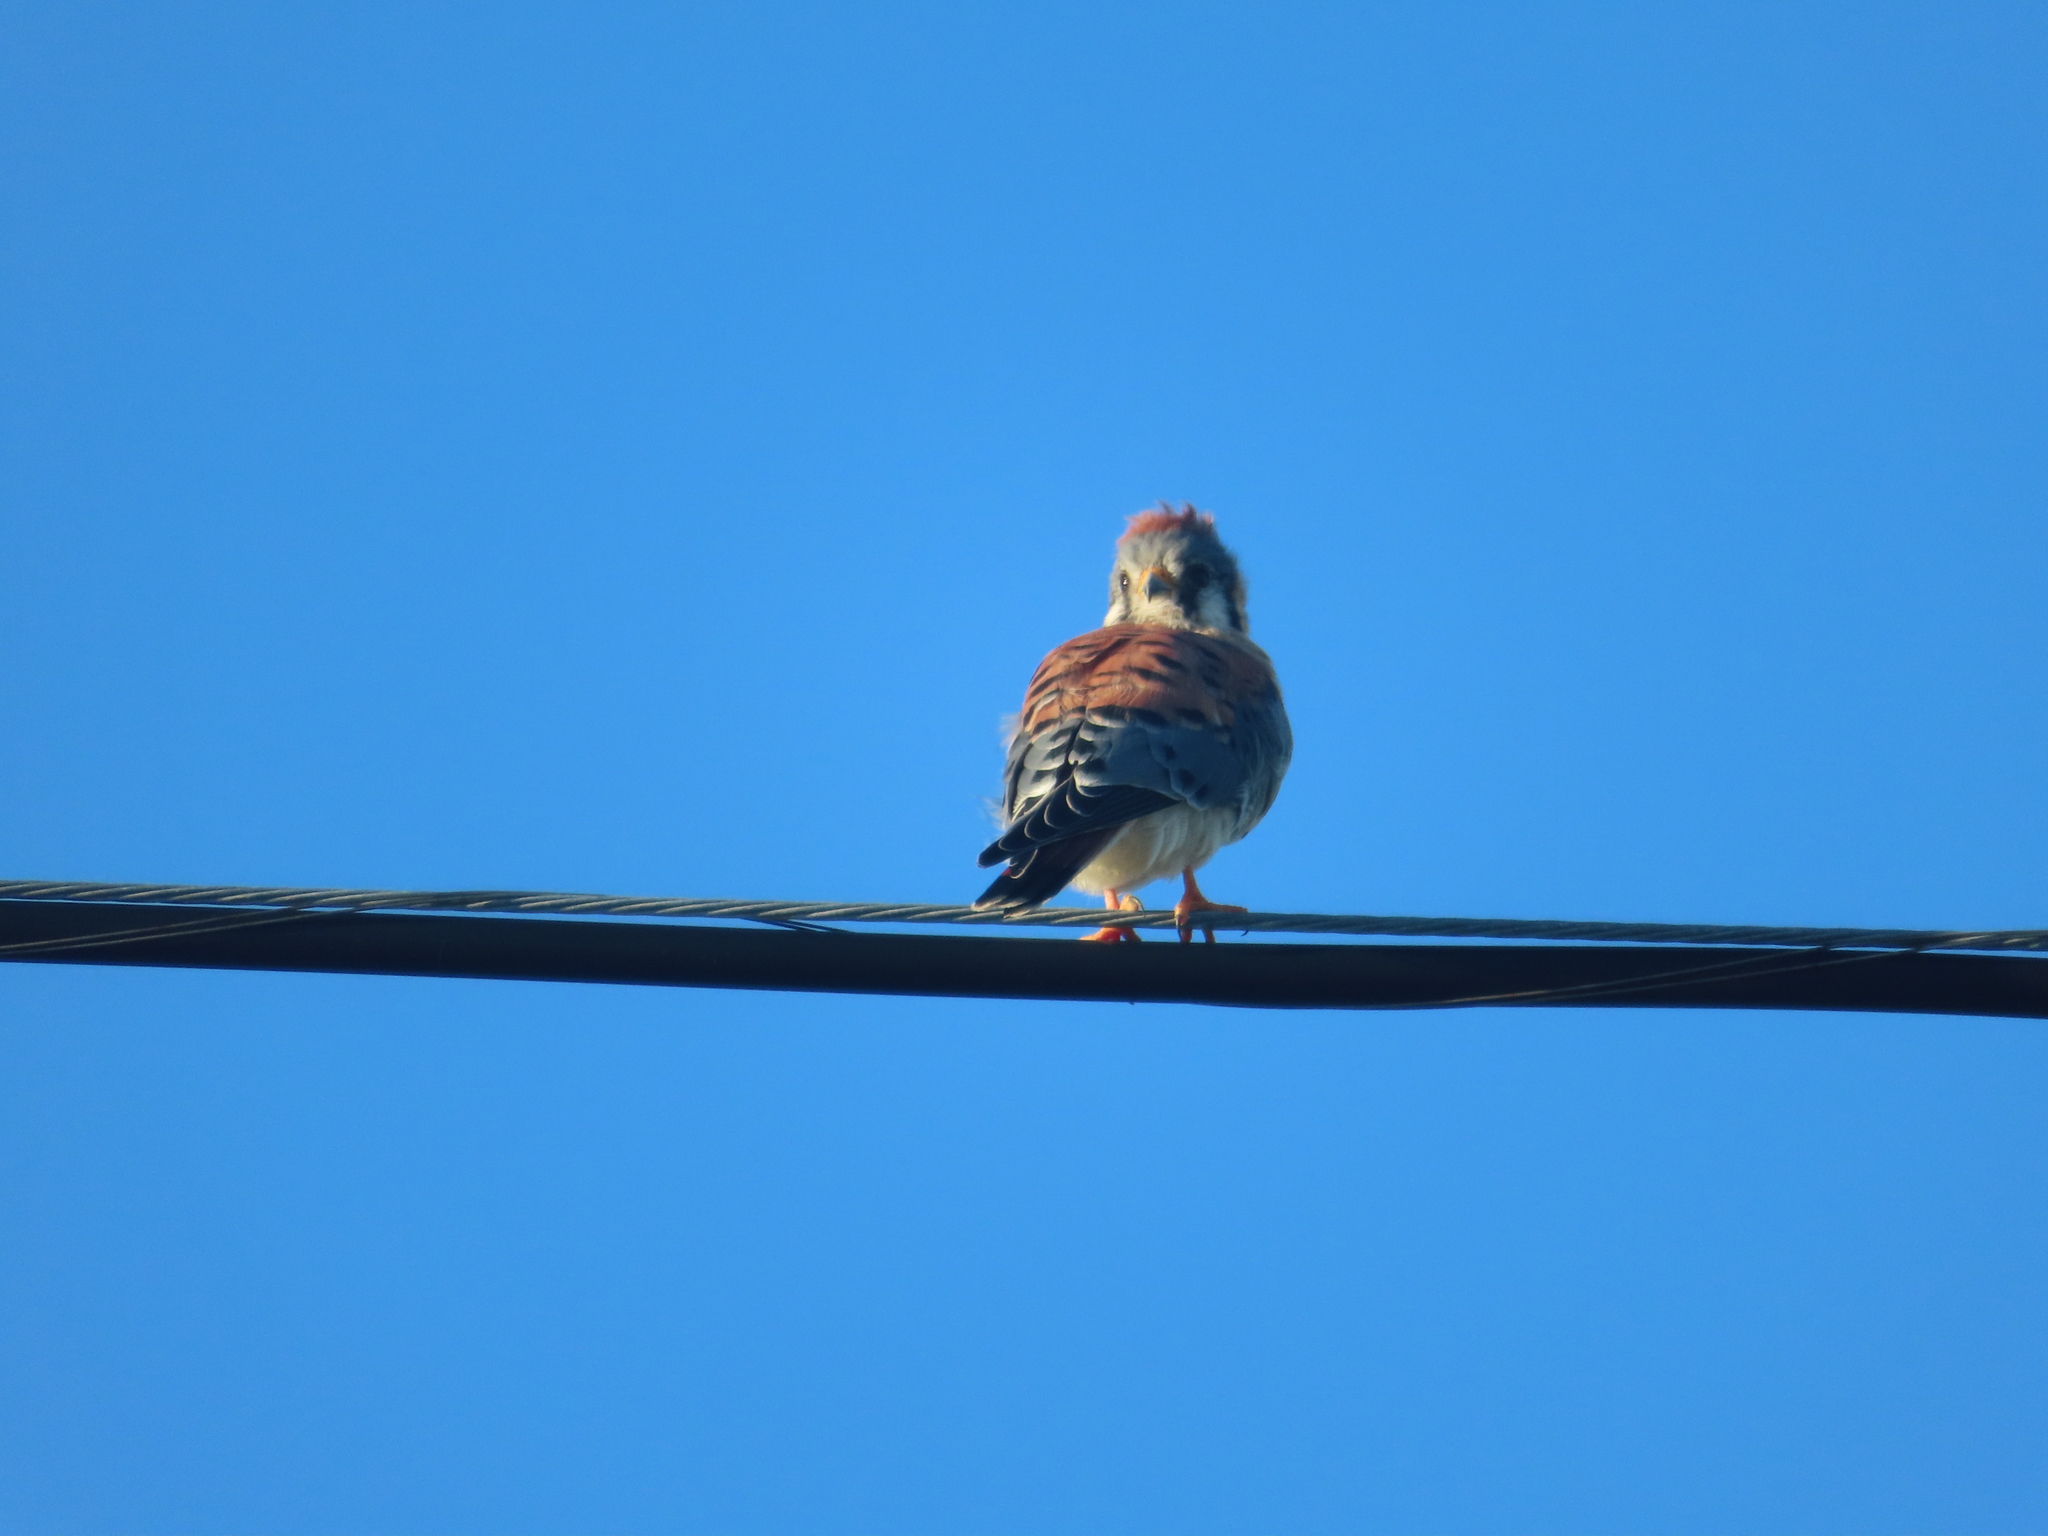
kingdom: Animalia
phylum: Chordata
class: Aves
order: Falconiformes
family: Falconidae
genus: Falco
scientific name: Falco sparverius
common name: American kestrel
